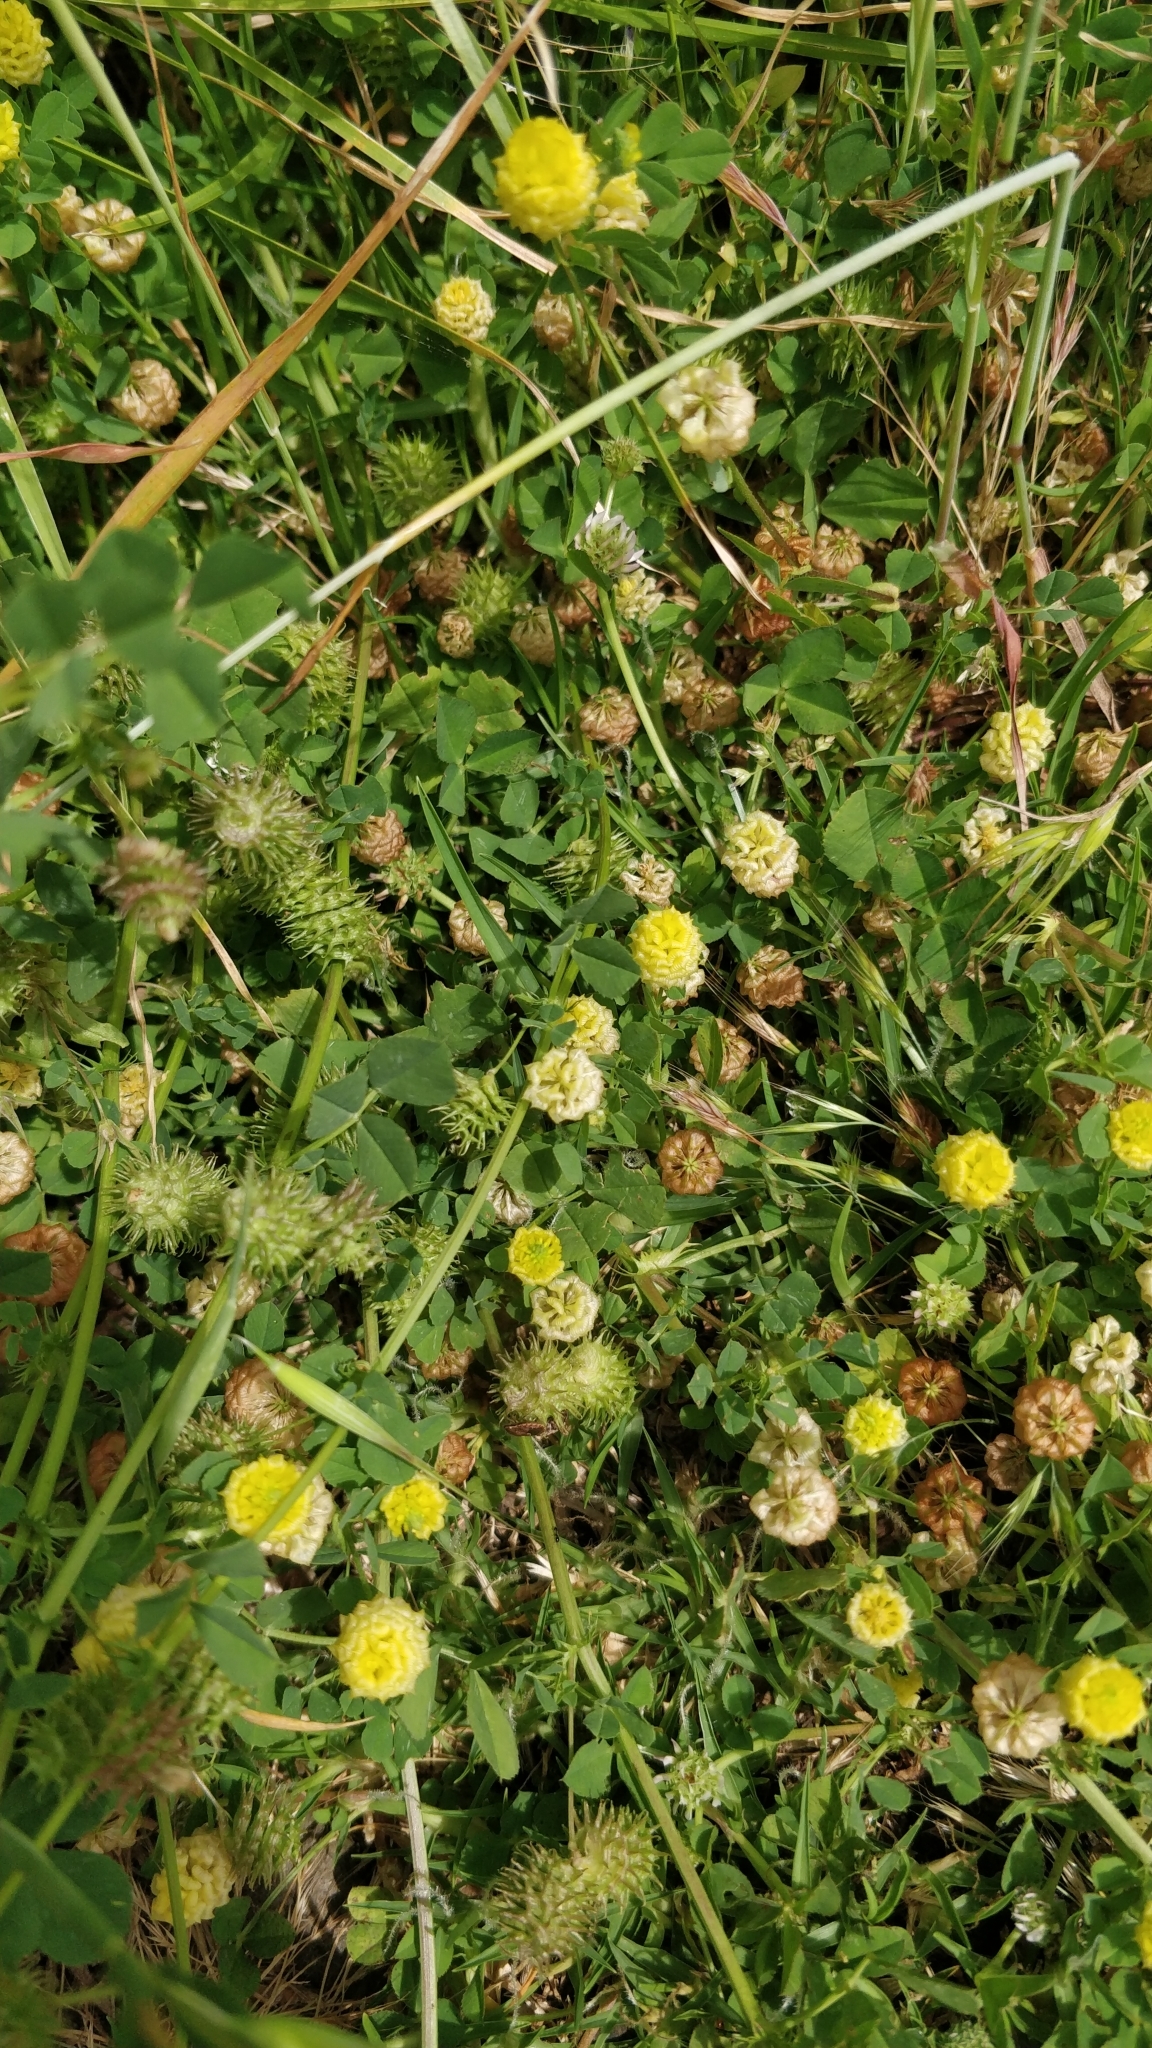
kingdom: Plantae
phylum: Tracheophyta
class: Magnoliopsida
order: Fabales
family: Fabaceae
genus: Trifolium
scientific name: Trifolium campestre
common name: Field clover
